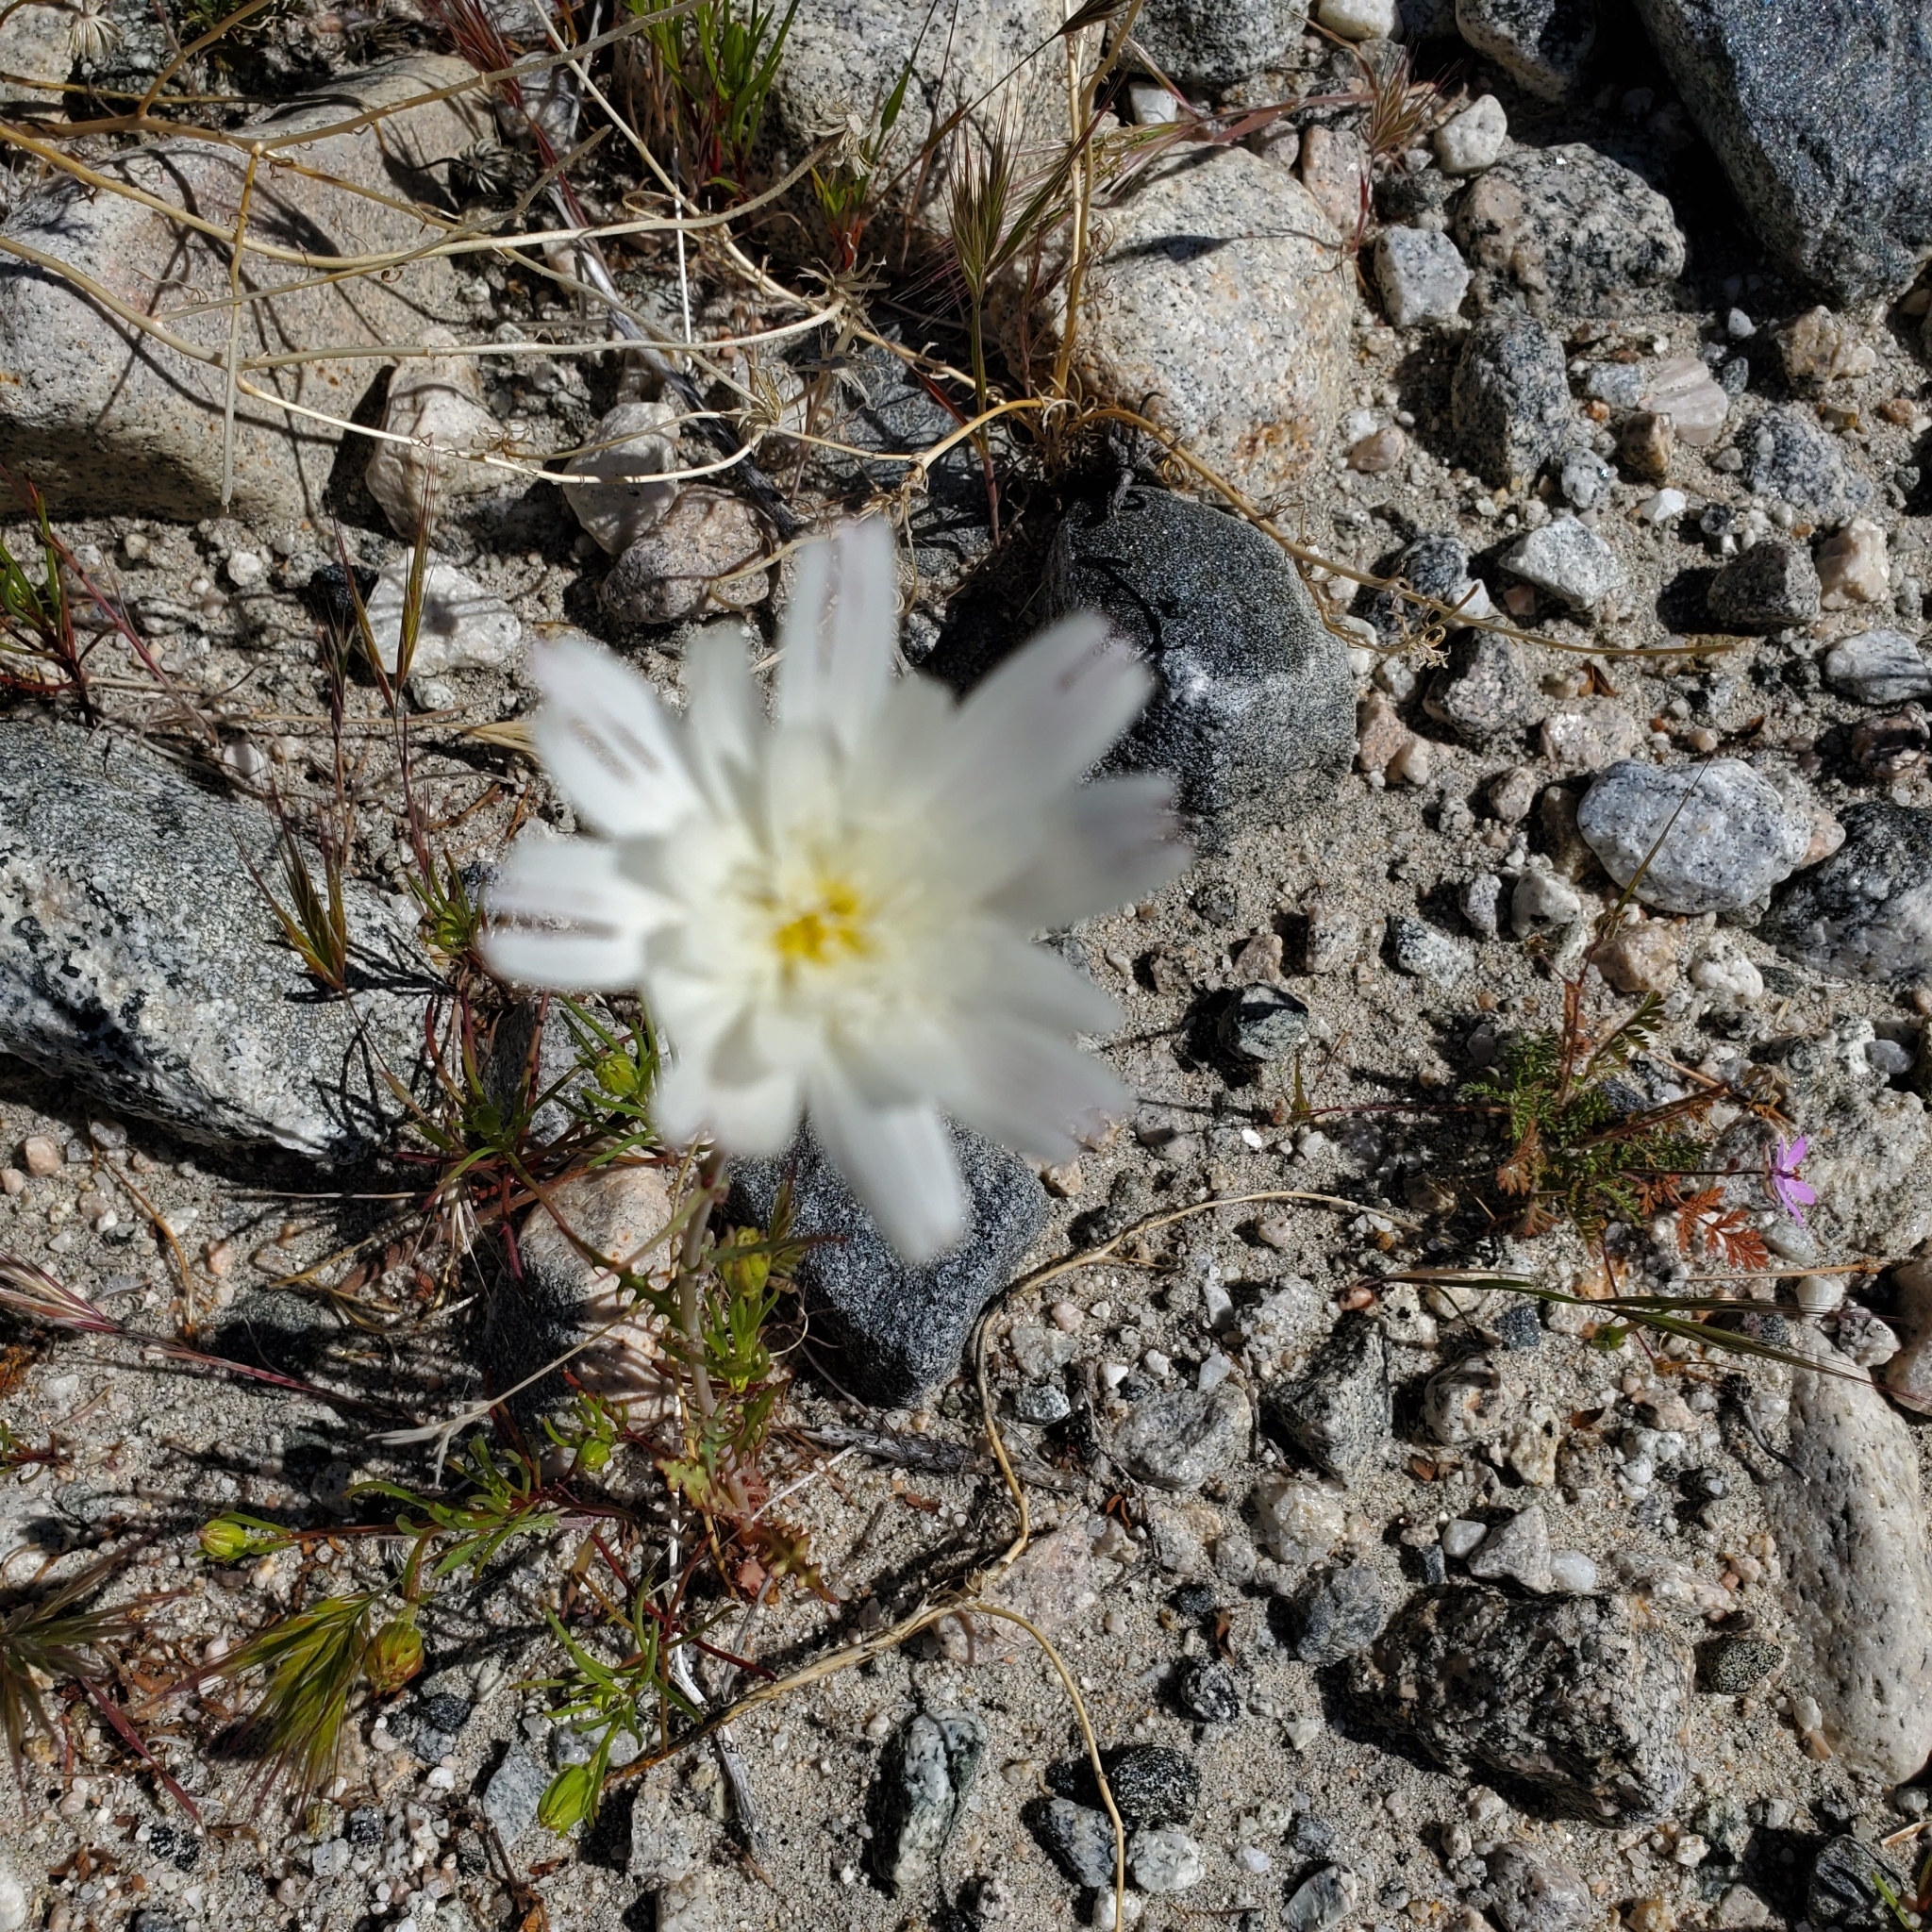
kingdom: Plantae
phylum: Tracheophyta
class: Magnoliopsida
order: Asterales
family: Asteraceae
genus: Rafinesquia
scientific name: Rafinesquia neomexicana
